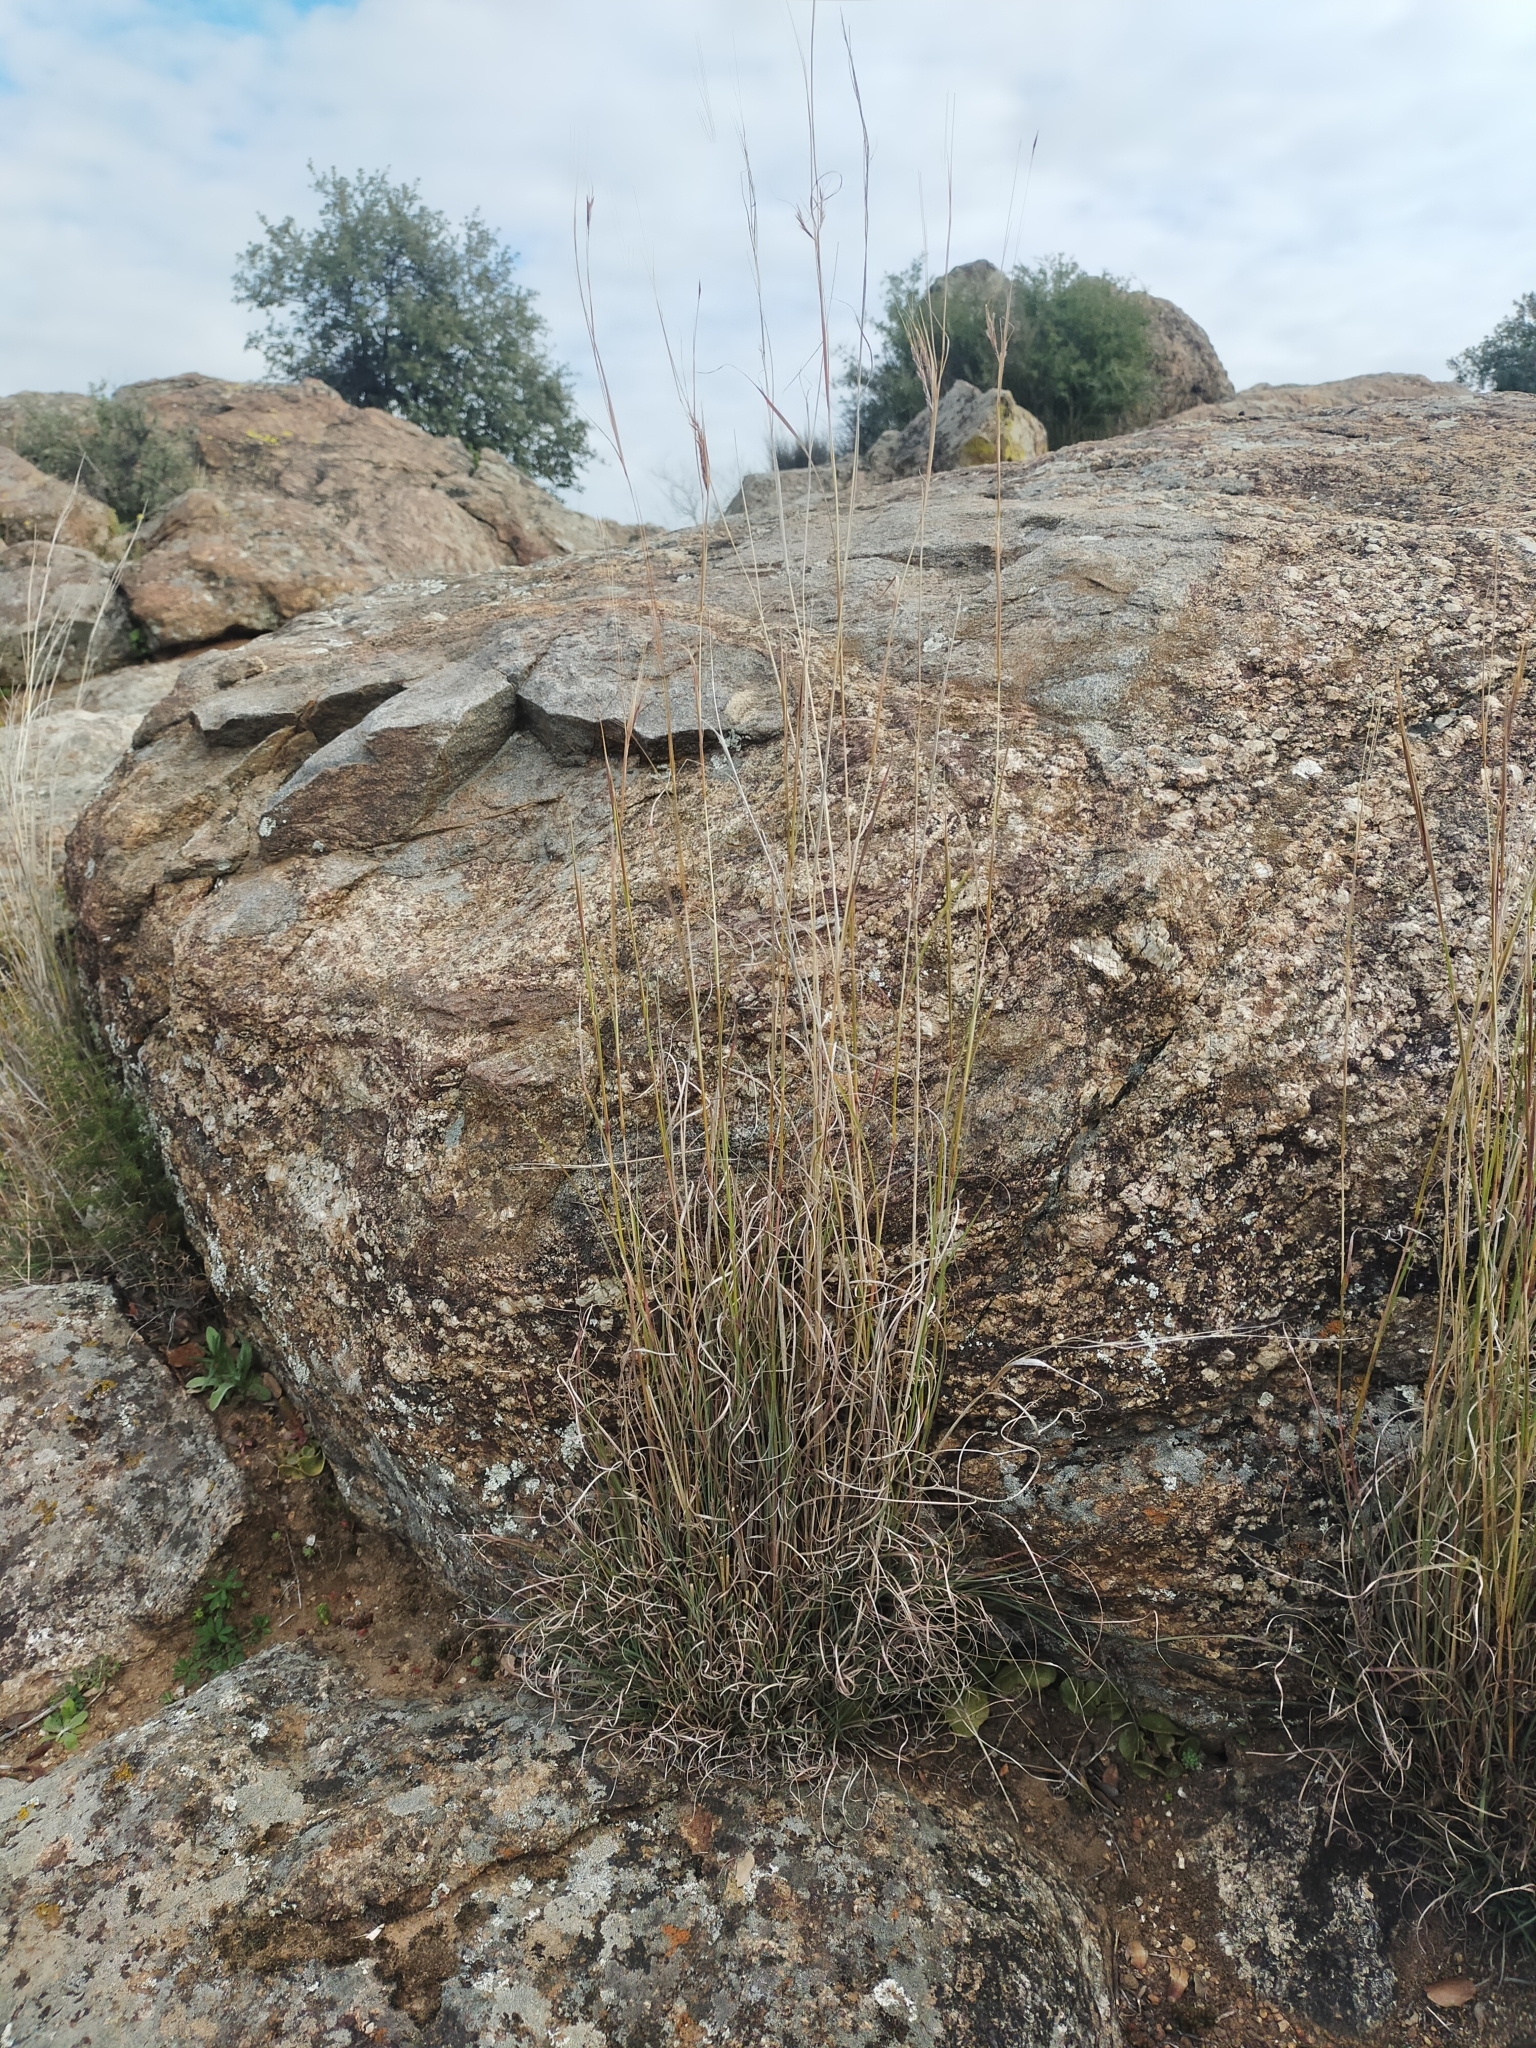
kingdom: Plantae
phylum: Tracheophyta
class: Liliopsida
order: Poales
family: Poaceae
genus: Hyparrhenia
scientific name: Hyparrhenia hirta
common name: Thatching grass
